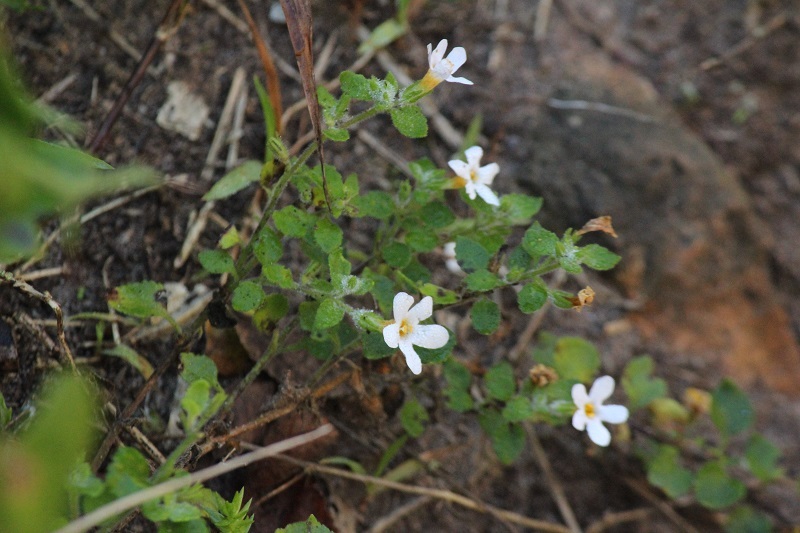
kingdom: Plantae
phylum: Tracheophyta
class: Magnoliopsida
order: Lamiales
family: Scrophulariaceae
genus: Chaenostoma
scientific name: Chaenostoma cordatum
